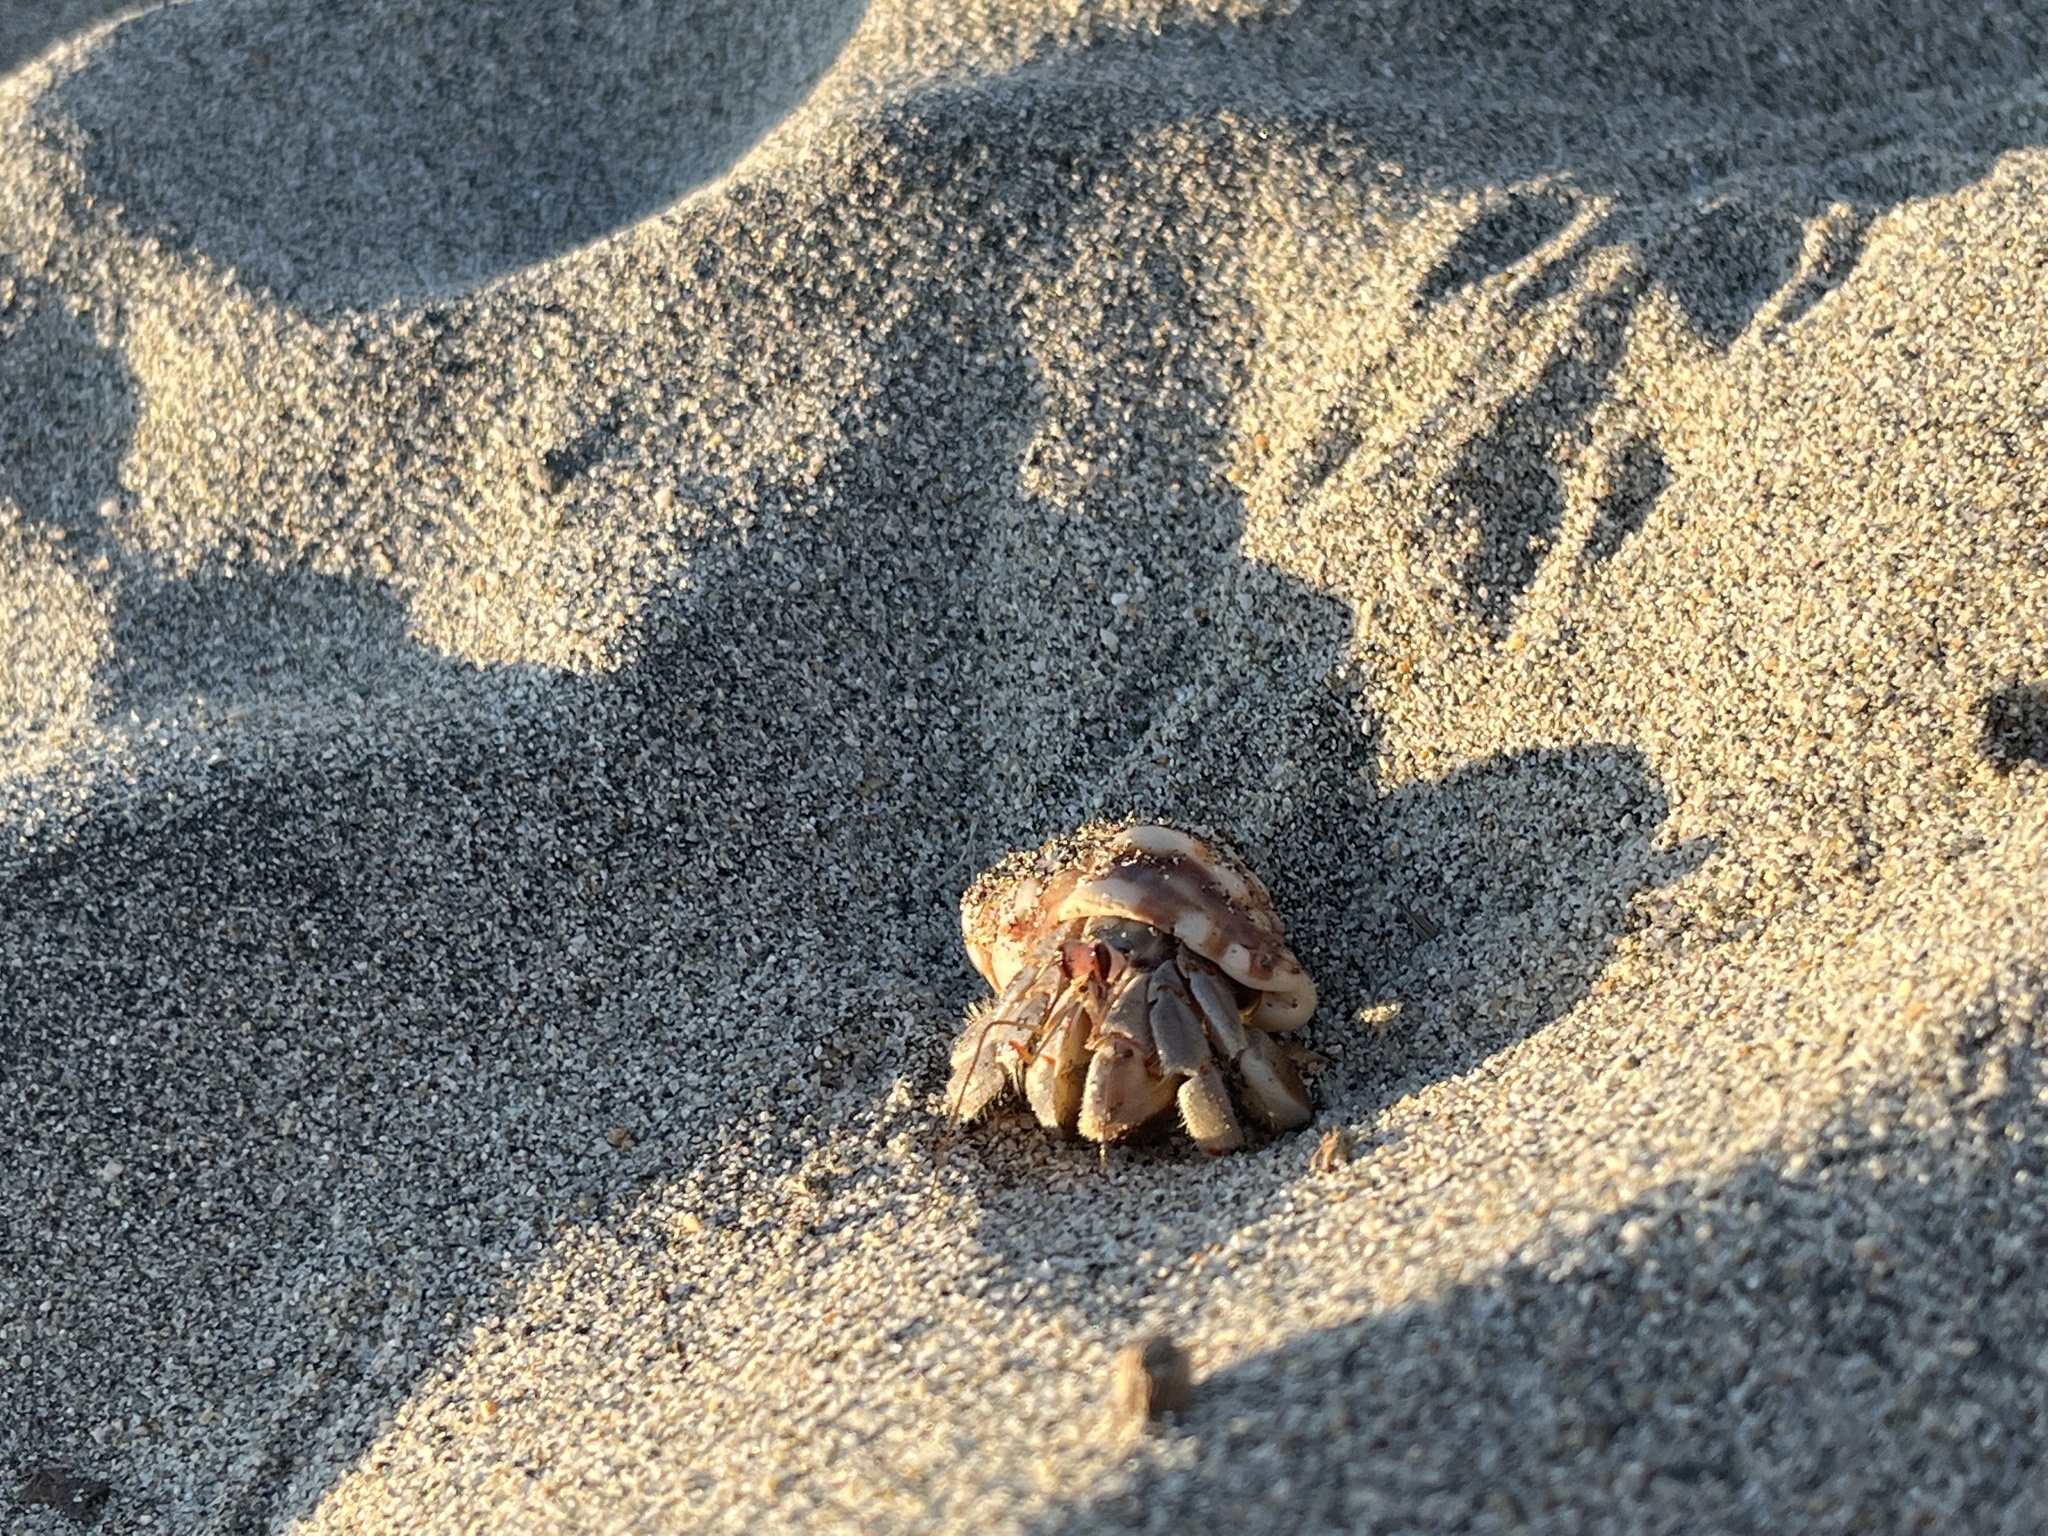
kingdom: Animalia
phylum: Arthropoda
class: Malacostraca
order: Decapoda
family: Coenobitidae
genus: Coenobita
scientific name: Coenobita compressus
